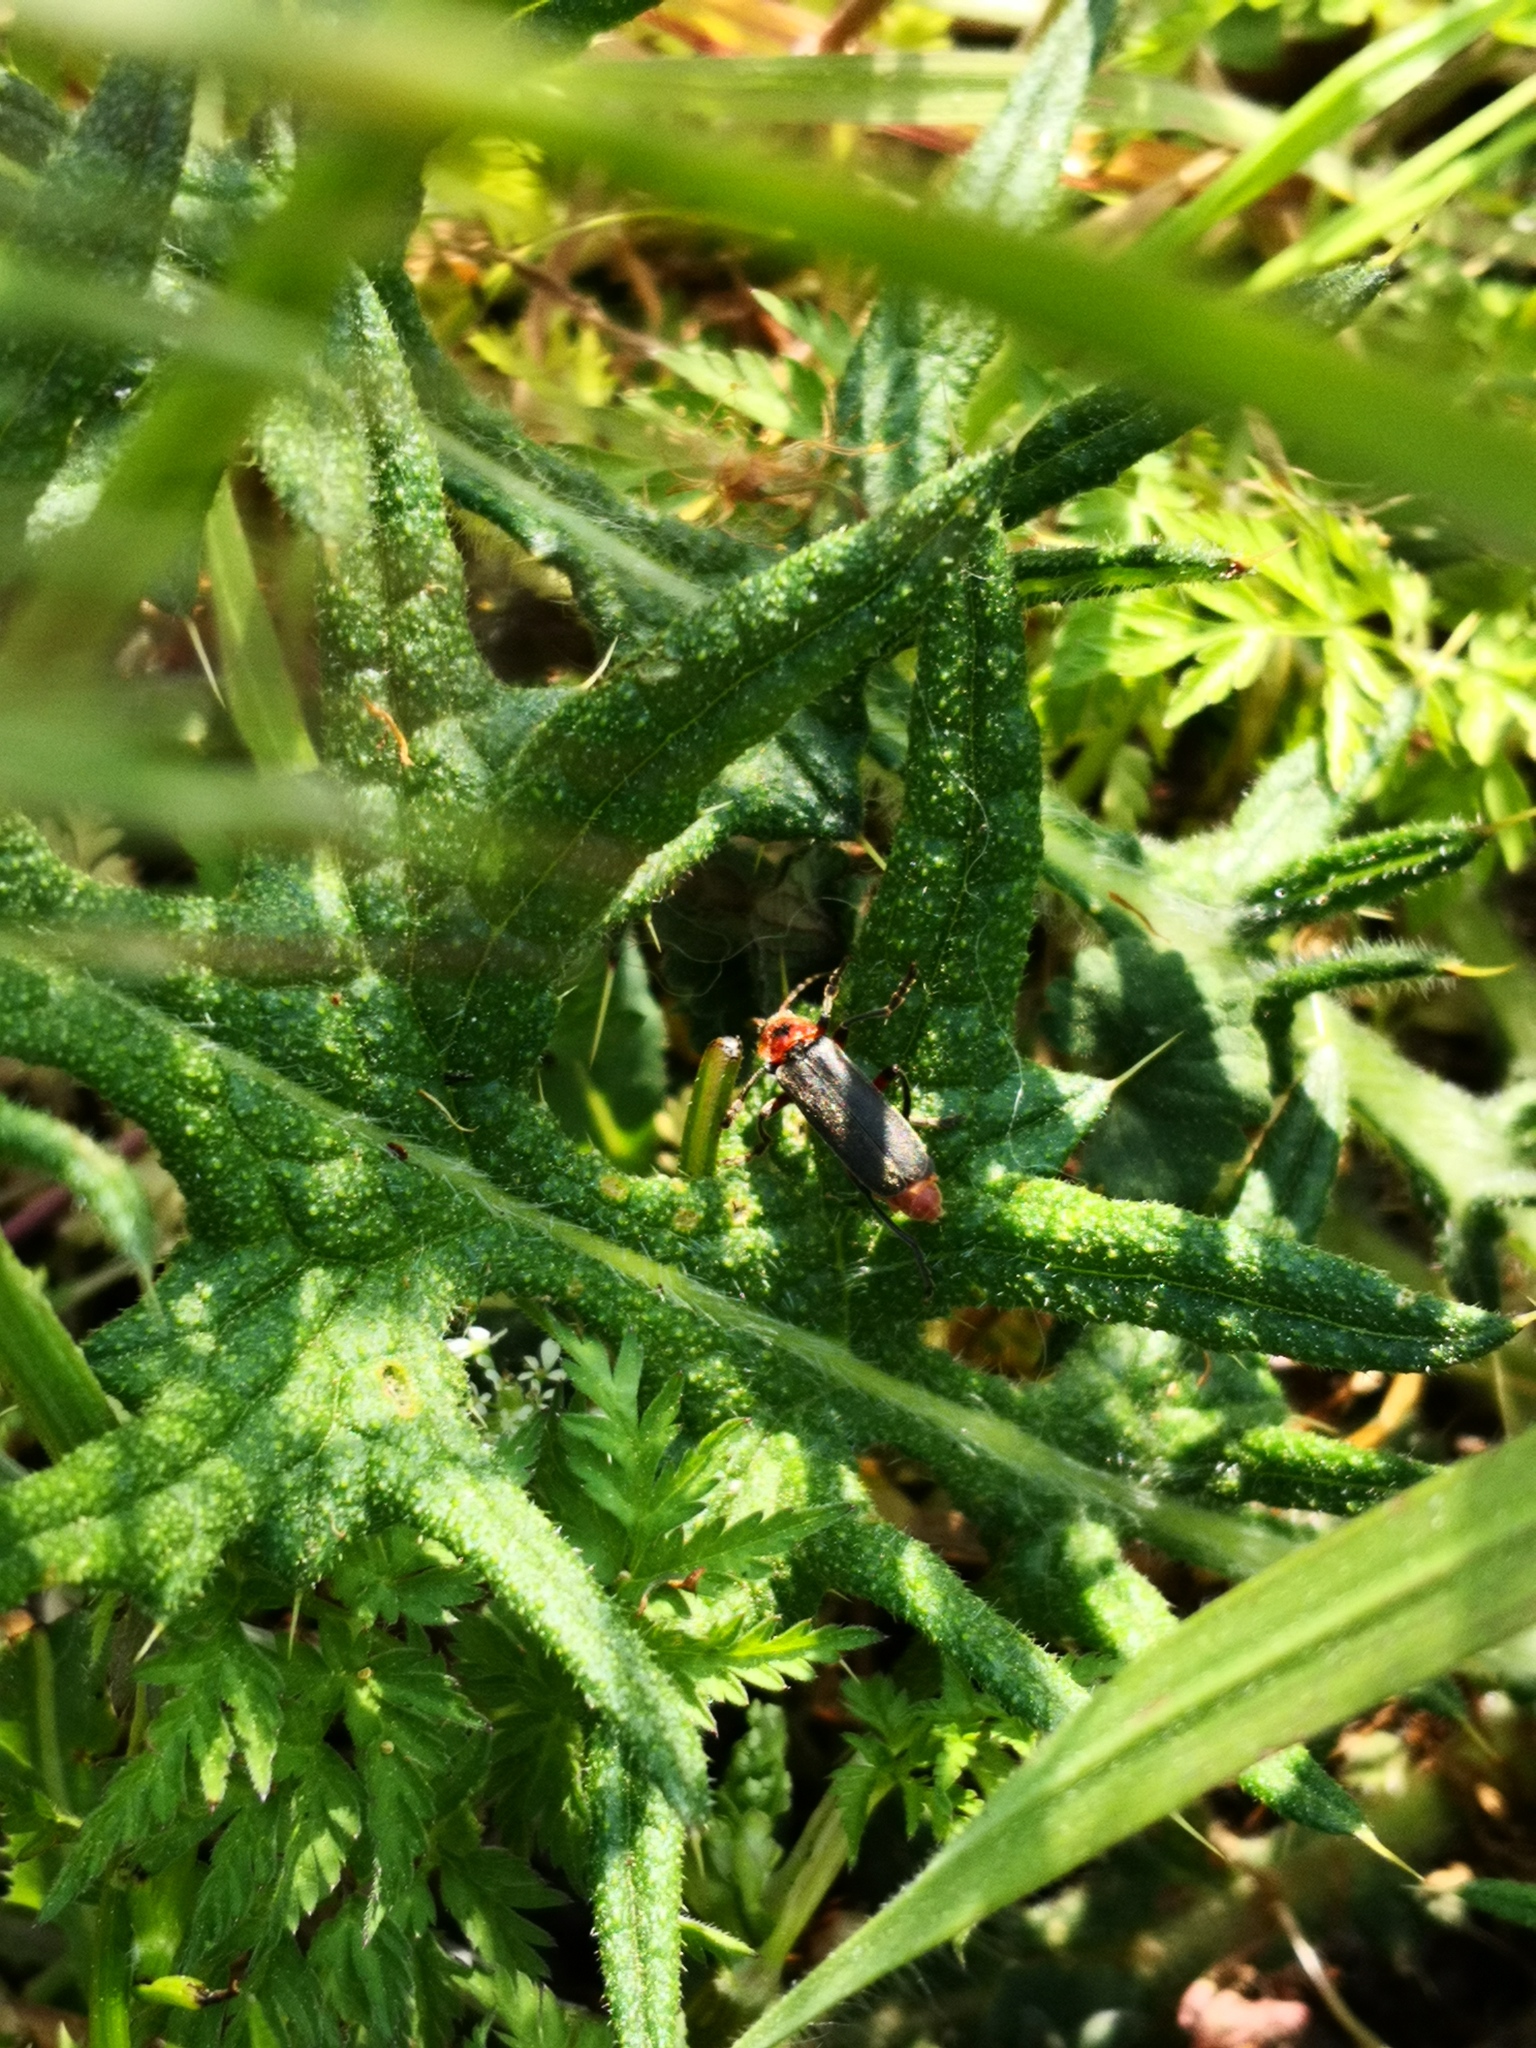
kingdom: Animalia
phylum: Arthropoda
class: Insecta
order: Coleoptera
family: Cantharidae
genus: Cantharis
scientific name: Cantharis rustica
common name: Soldier beetle
